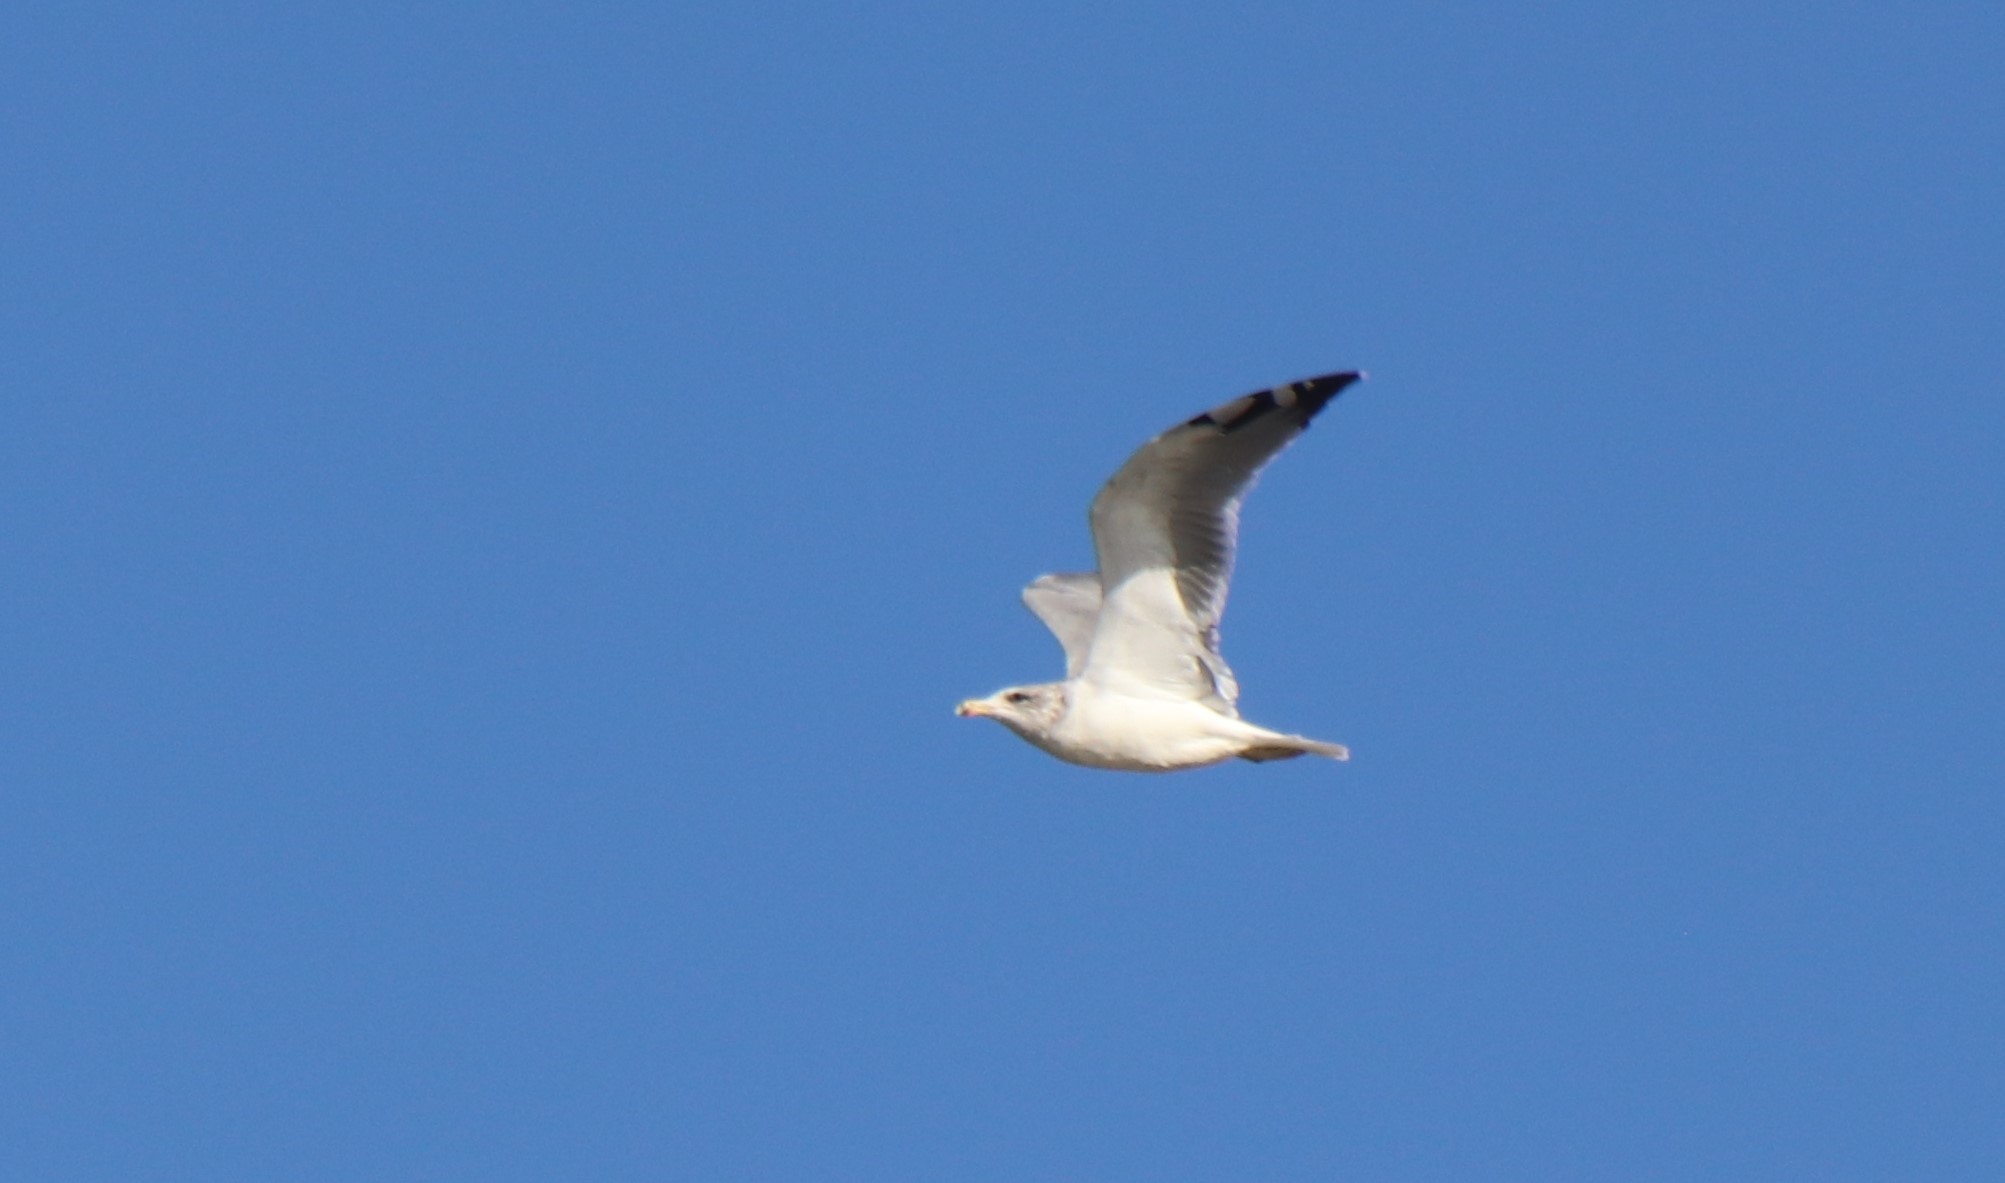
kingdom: Animalia
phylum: Chordata
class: Aves
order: Charadriiformes
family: Laridae
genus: Larus
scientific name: Larus californicus
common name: California gull
